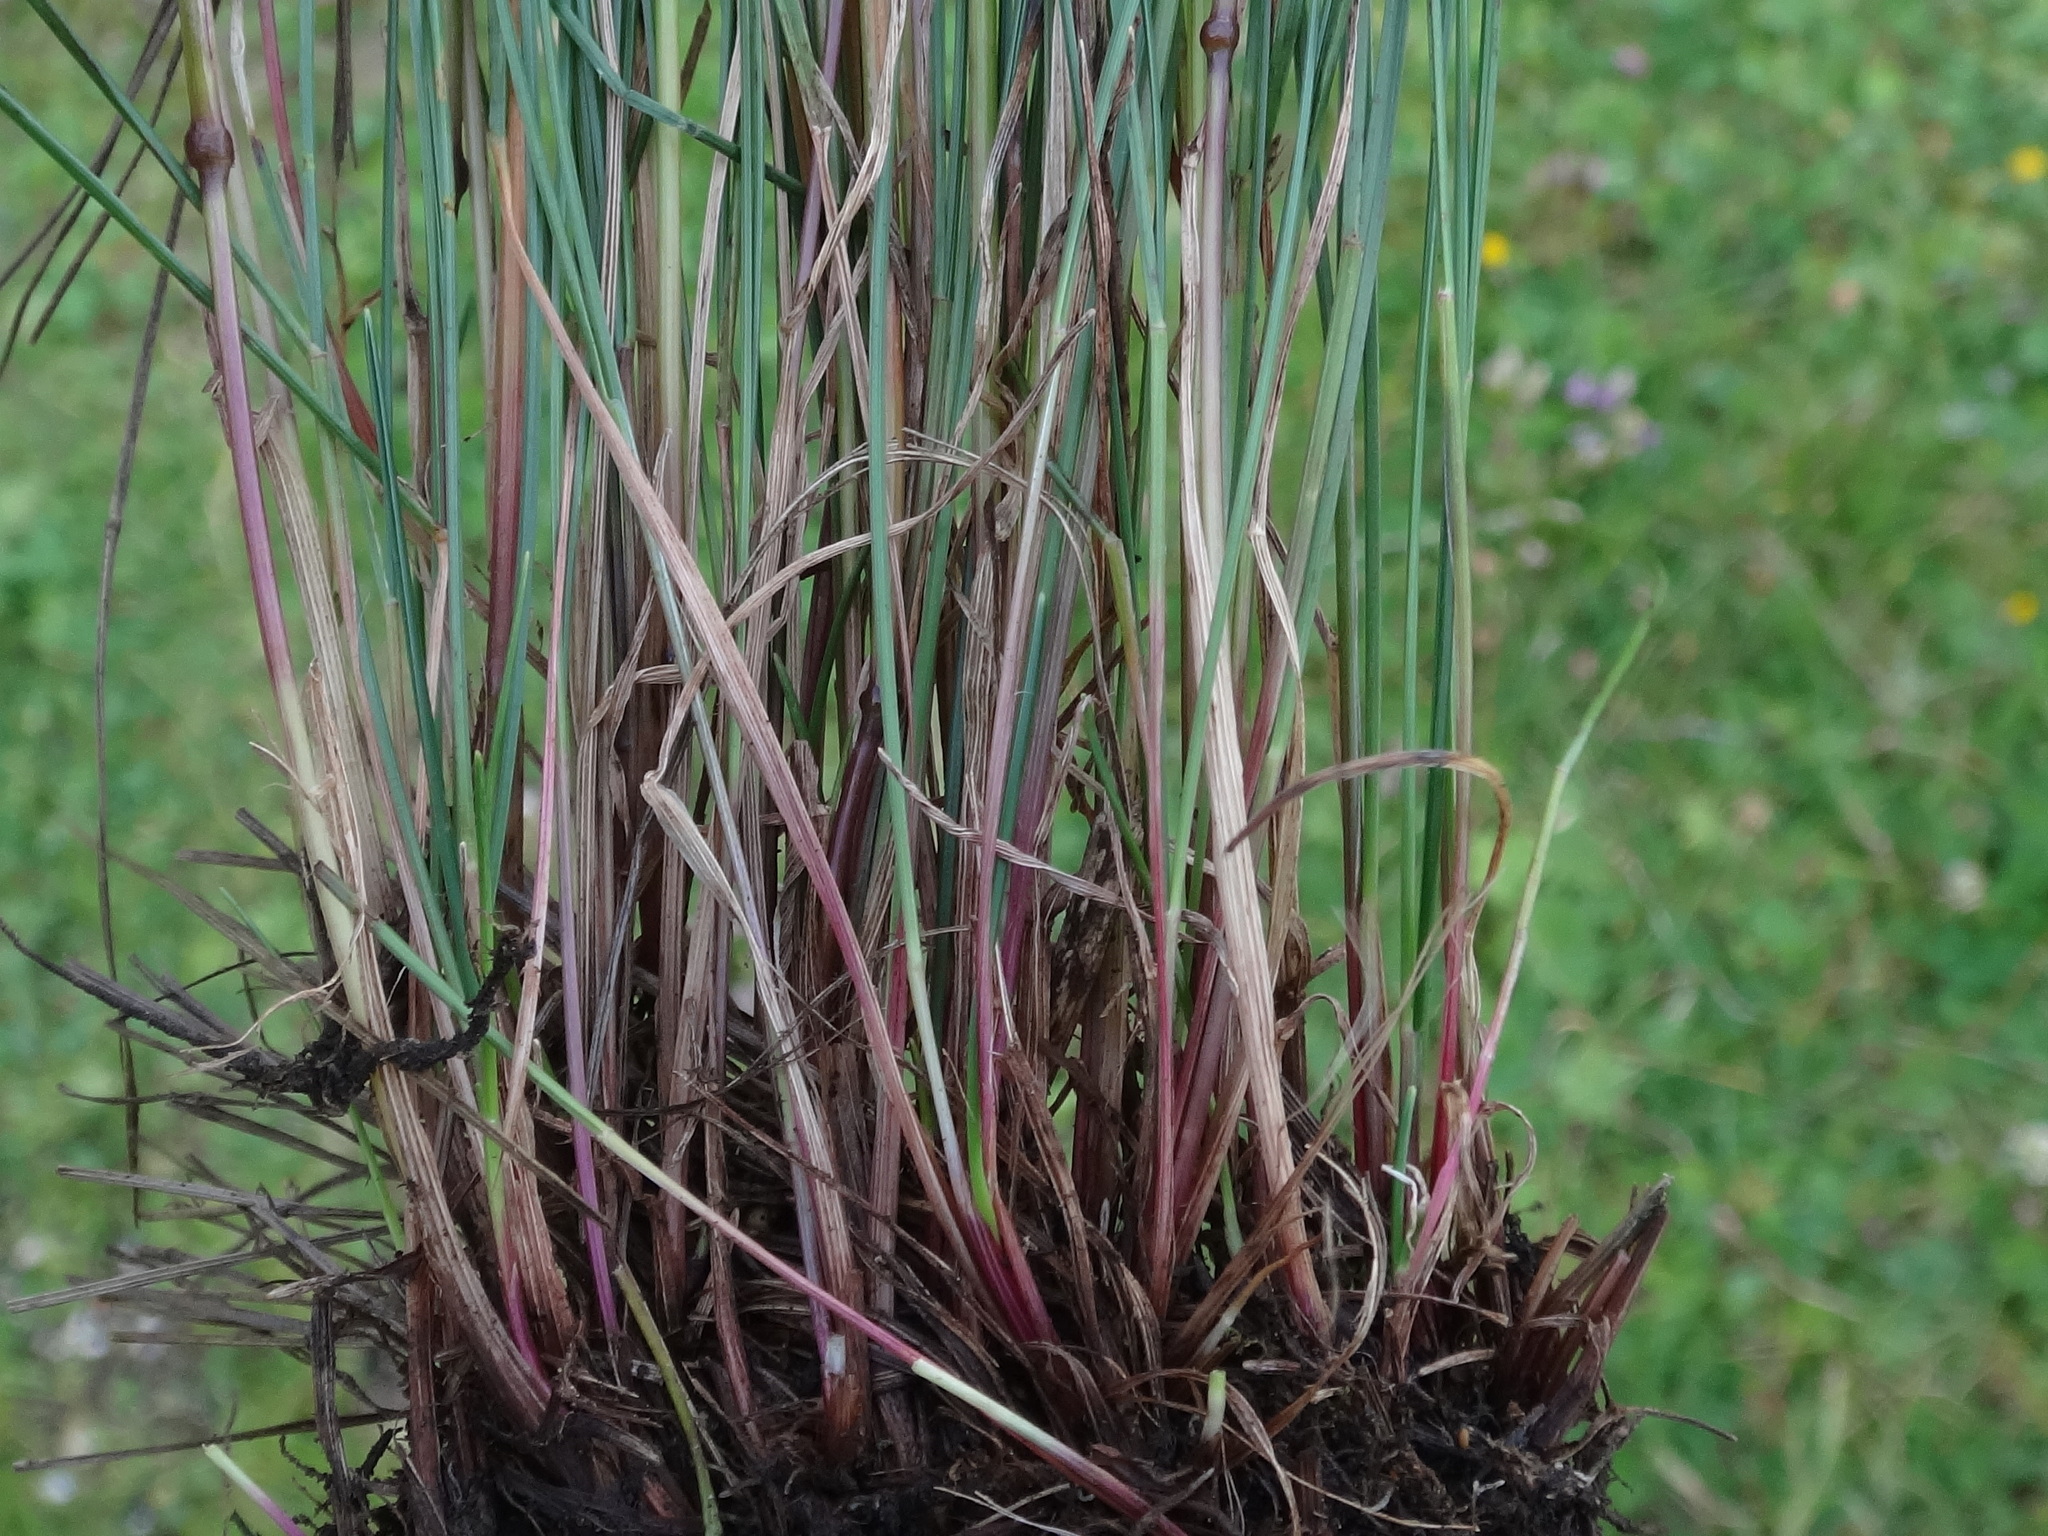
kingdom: Plantae
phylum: Tracheophyta
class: Liliopsida
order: Poales
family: Poaceae
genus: Festuca
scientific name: Festuca norica
